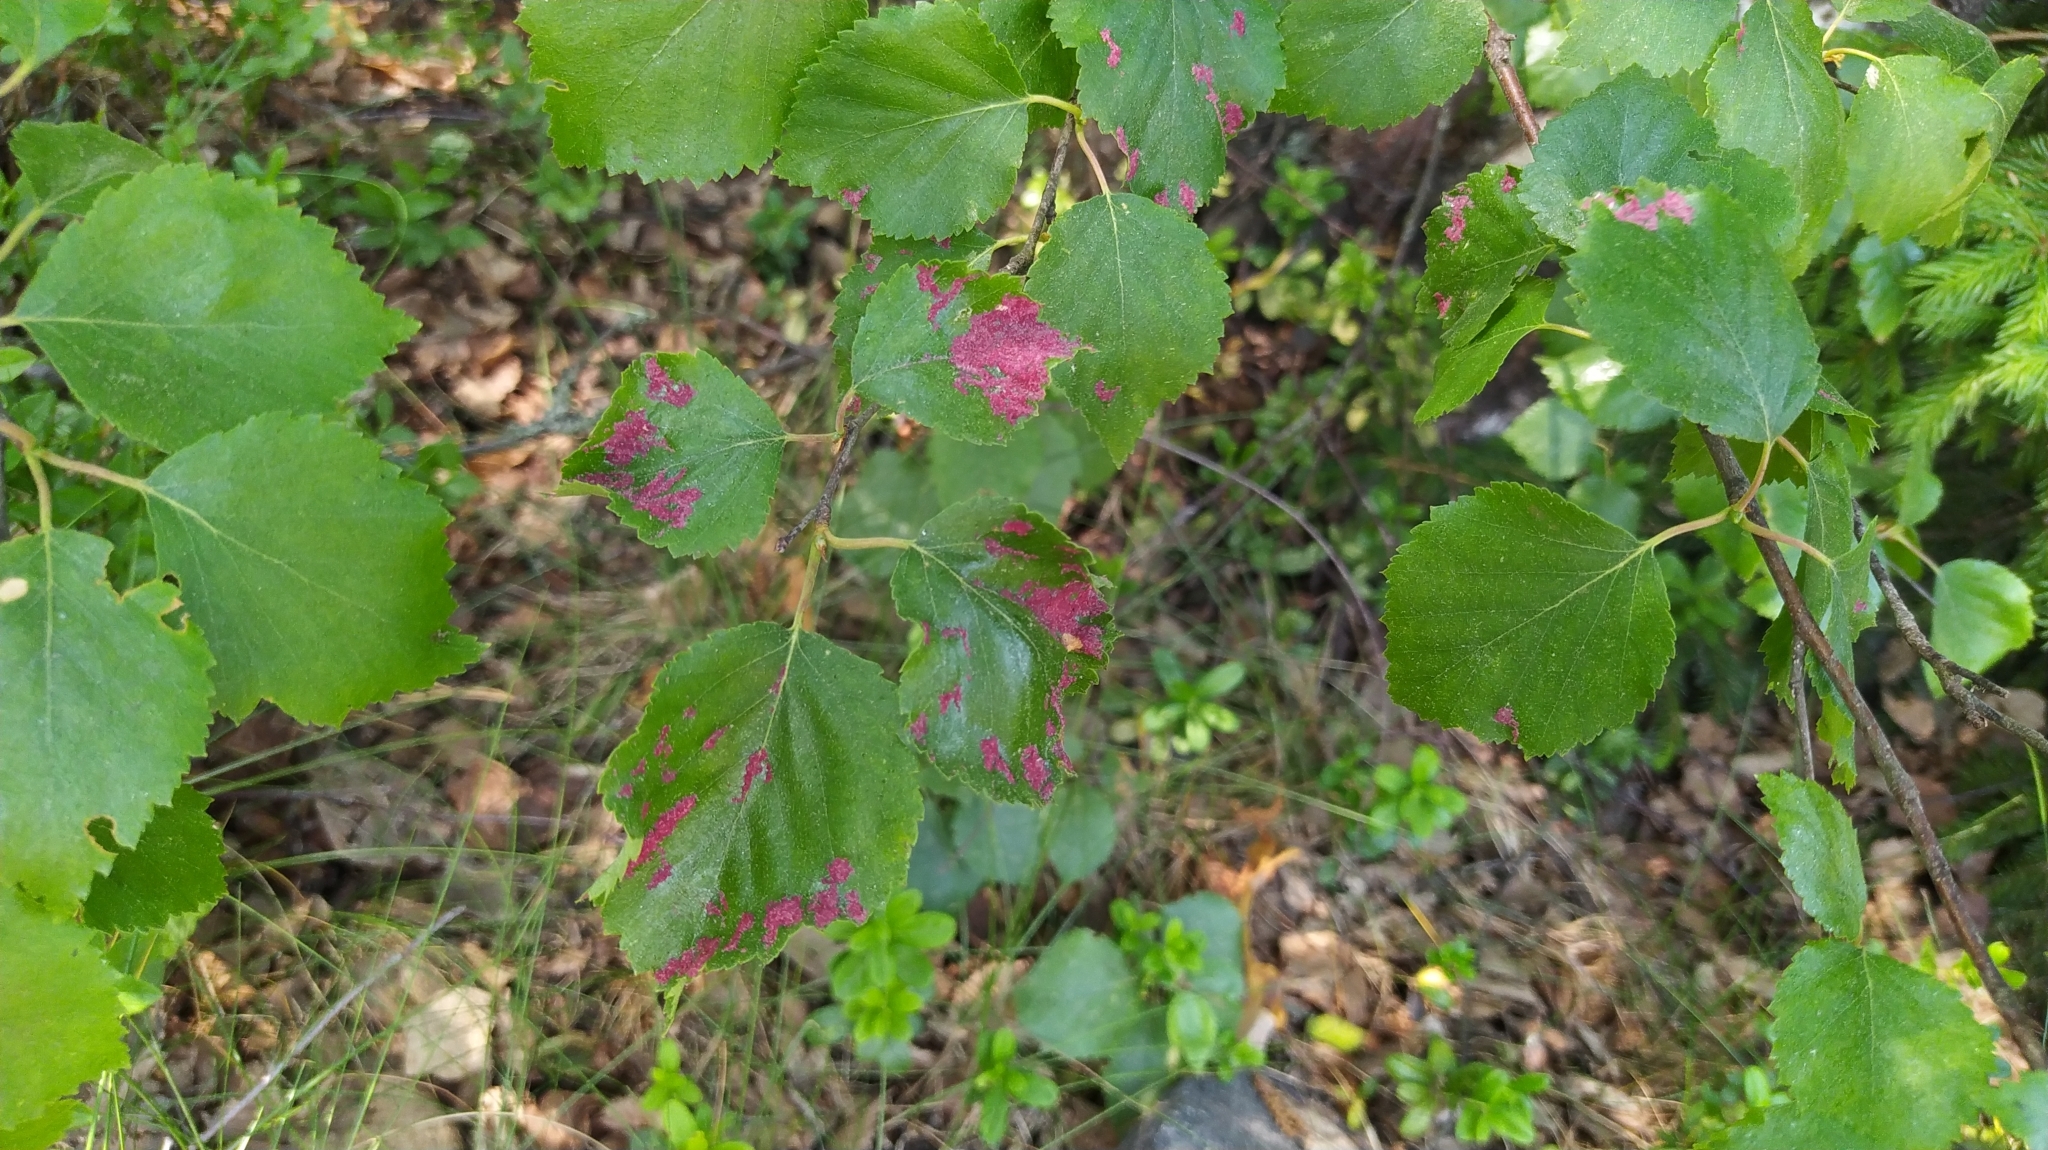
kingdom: Animalia
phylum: Arthropoda
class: Arachnida
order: Trombidiformes
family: Eriophyidae
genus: Acalitus
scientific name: Acalitus longisetosus
